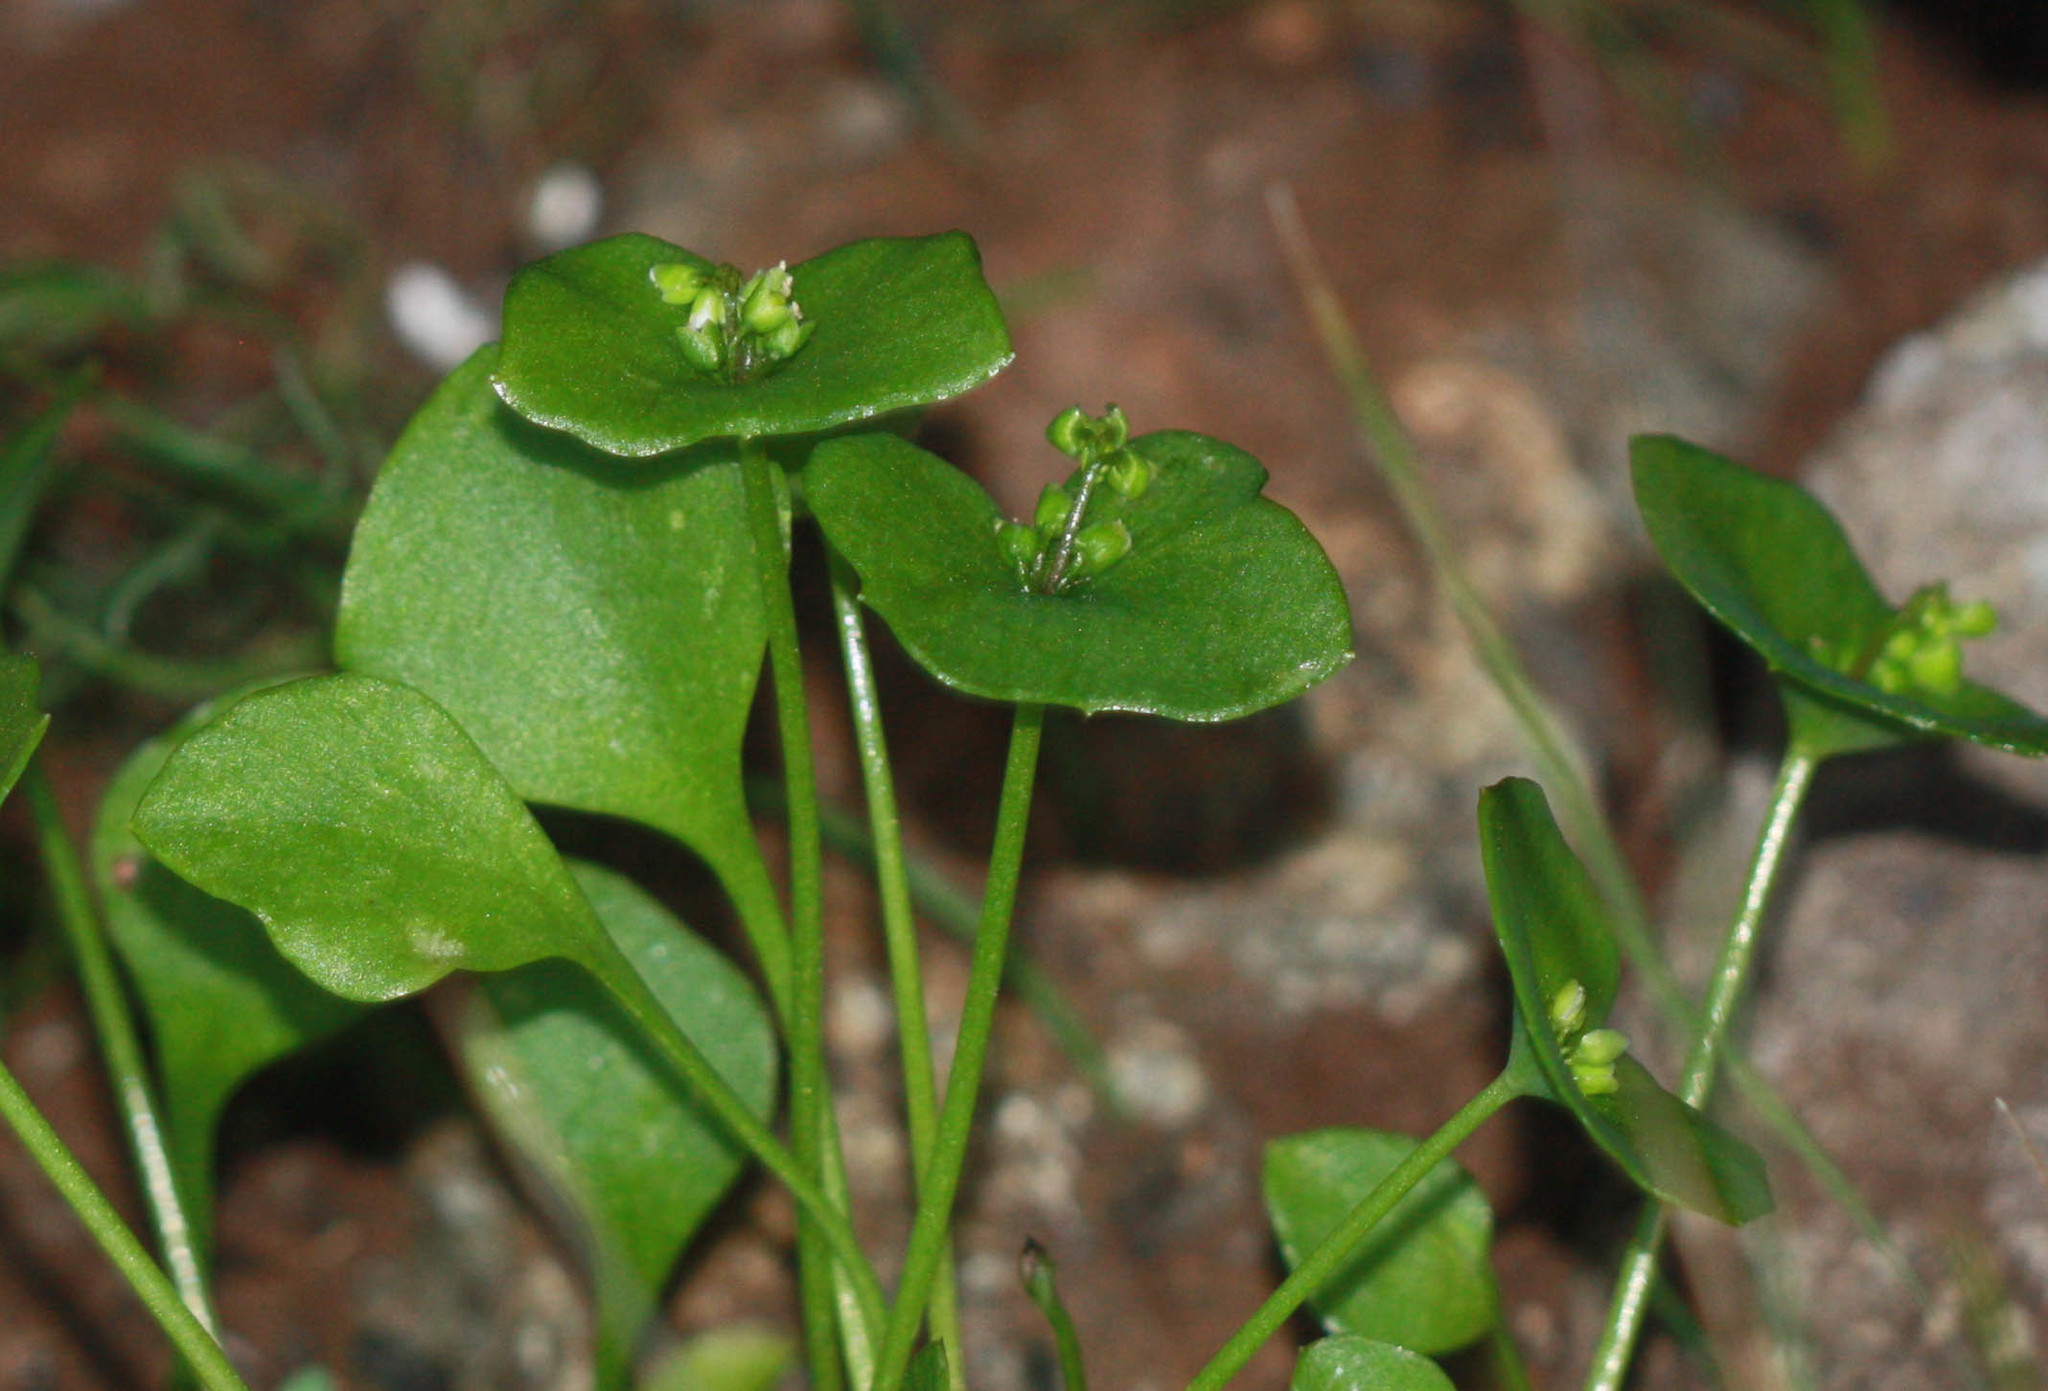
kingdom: Plantae
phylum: Tracheophyta
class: Magnoliopsida
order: Caryophyllales
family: Montiaceae
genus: Claytonia
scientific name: Claytonia perfoliata
